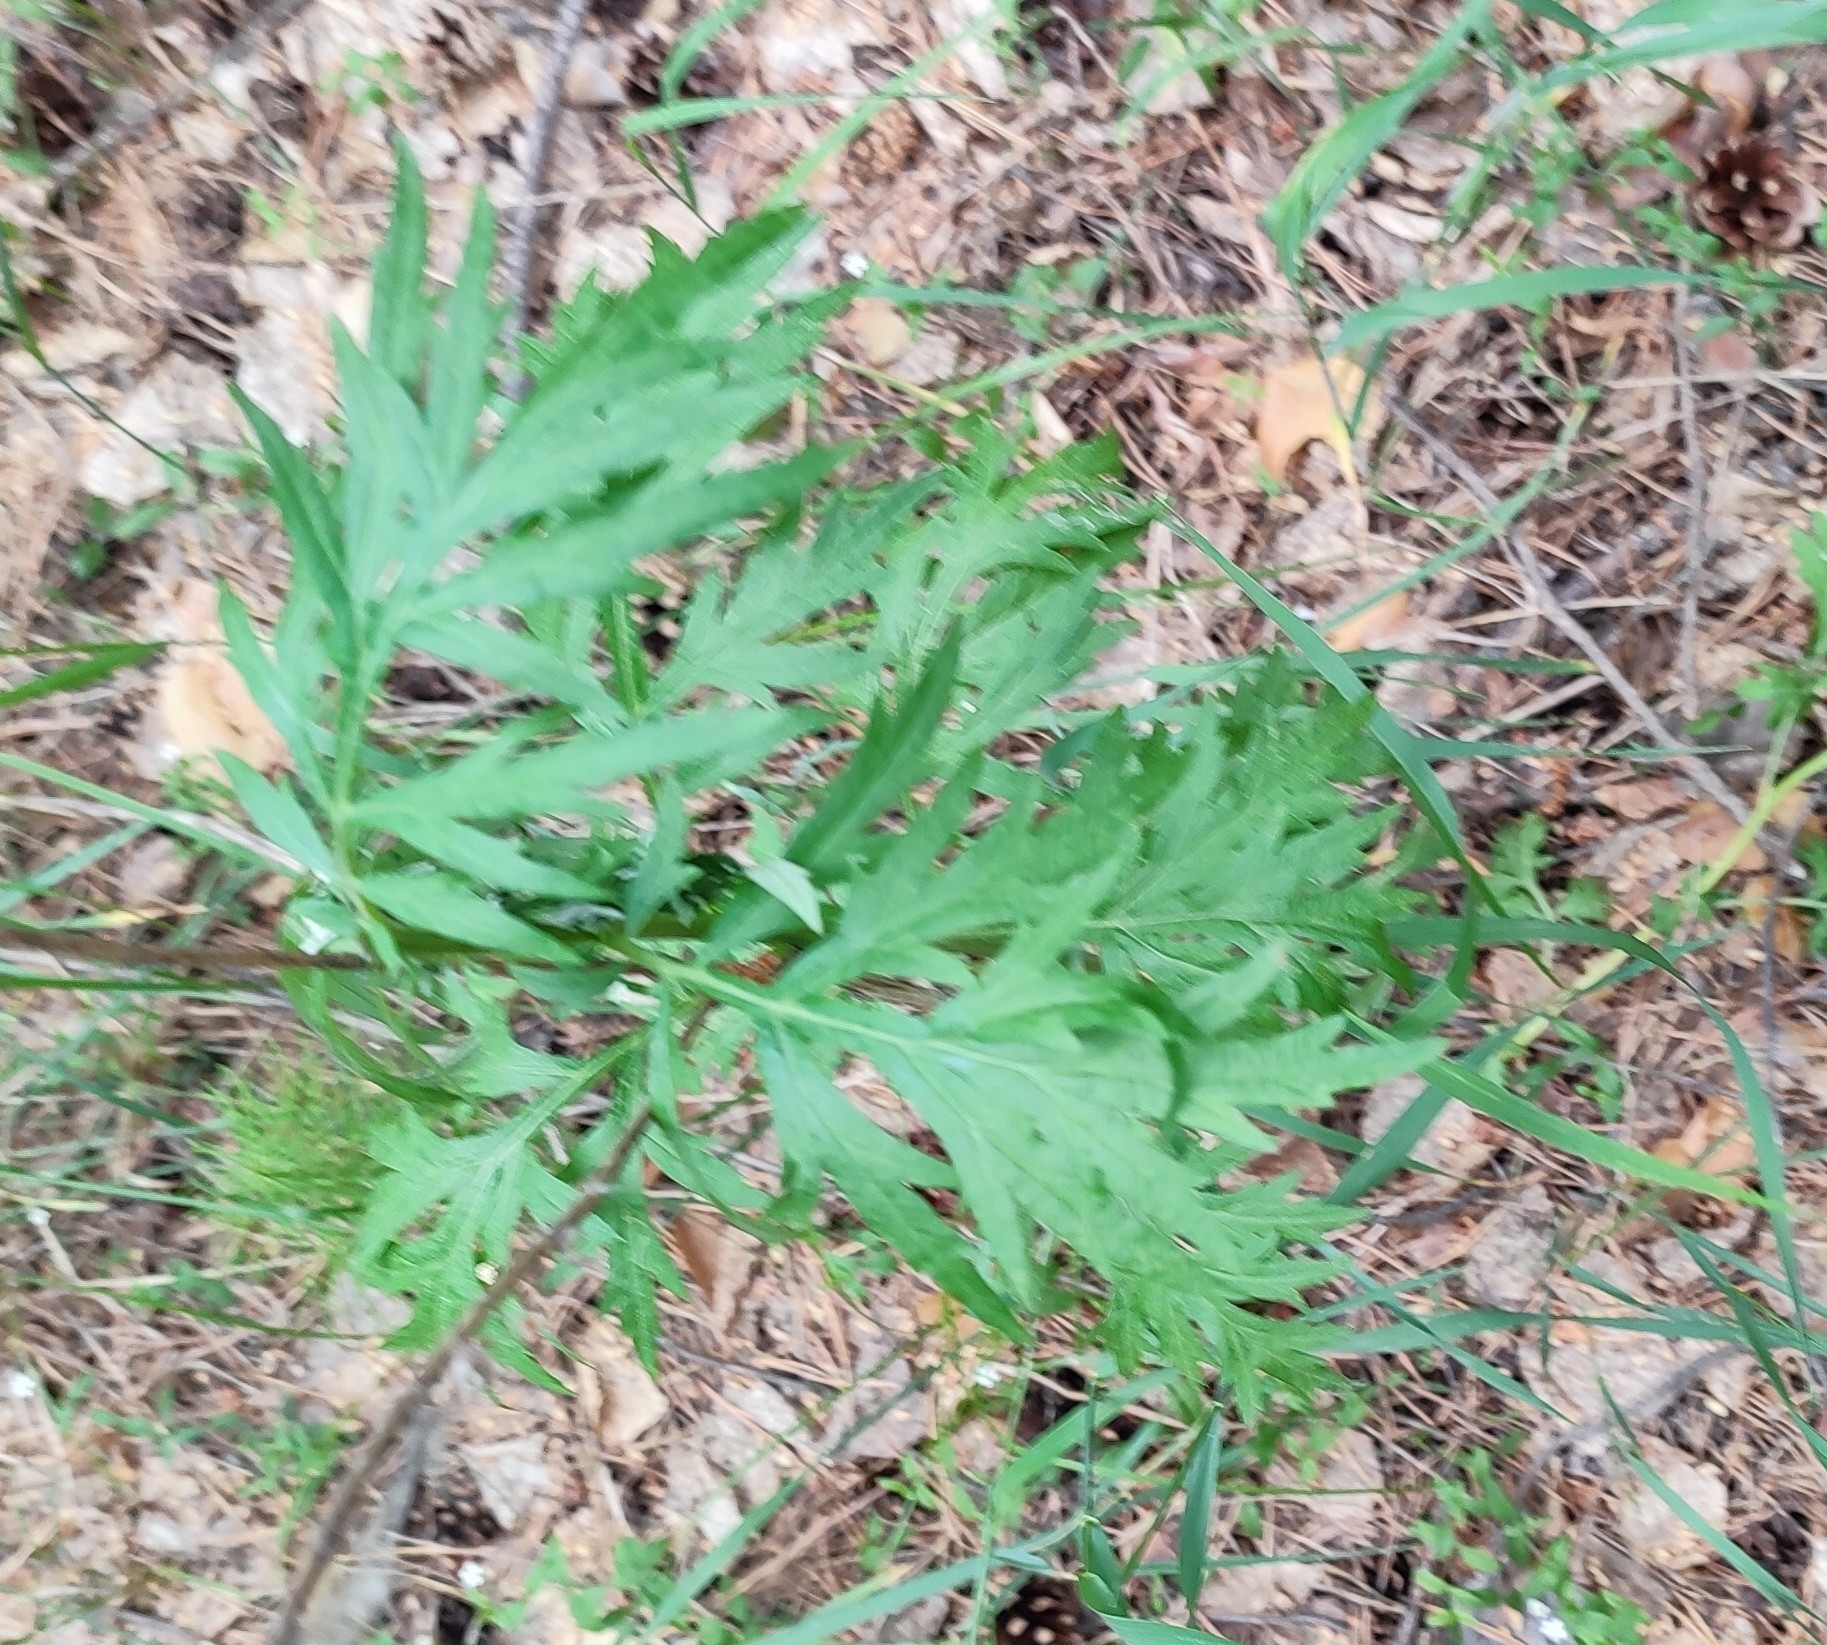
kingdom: Plantae
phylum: Tracheophyta
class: Magnoliopsida
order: Asterales
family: Asteraceae
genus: Artemisia
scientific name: Artemisia vulgaris
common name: Mugwort
